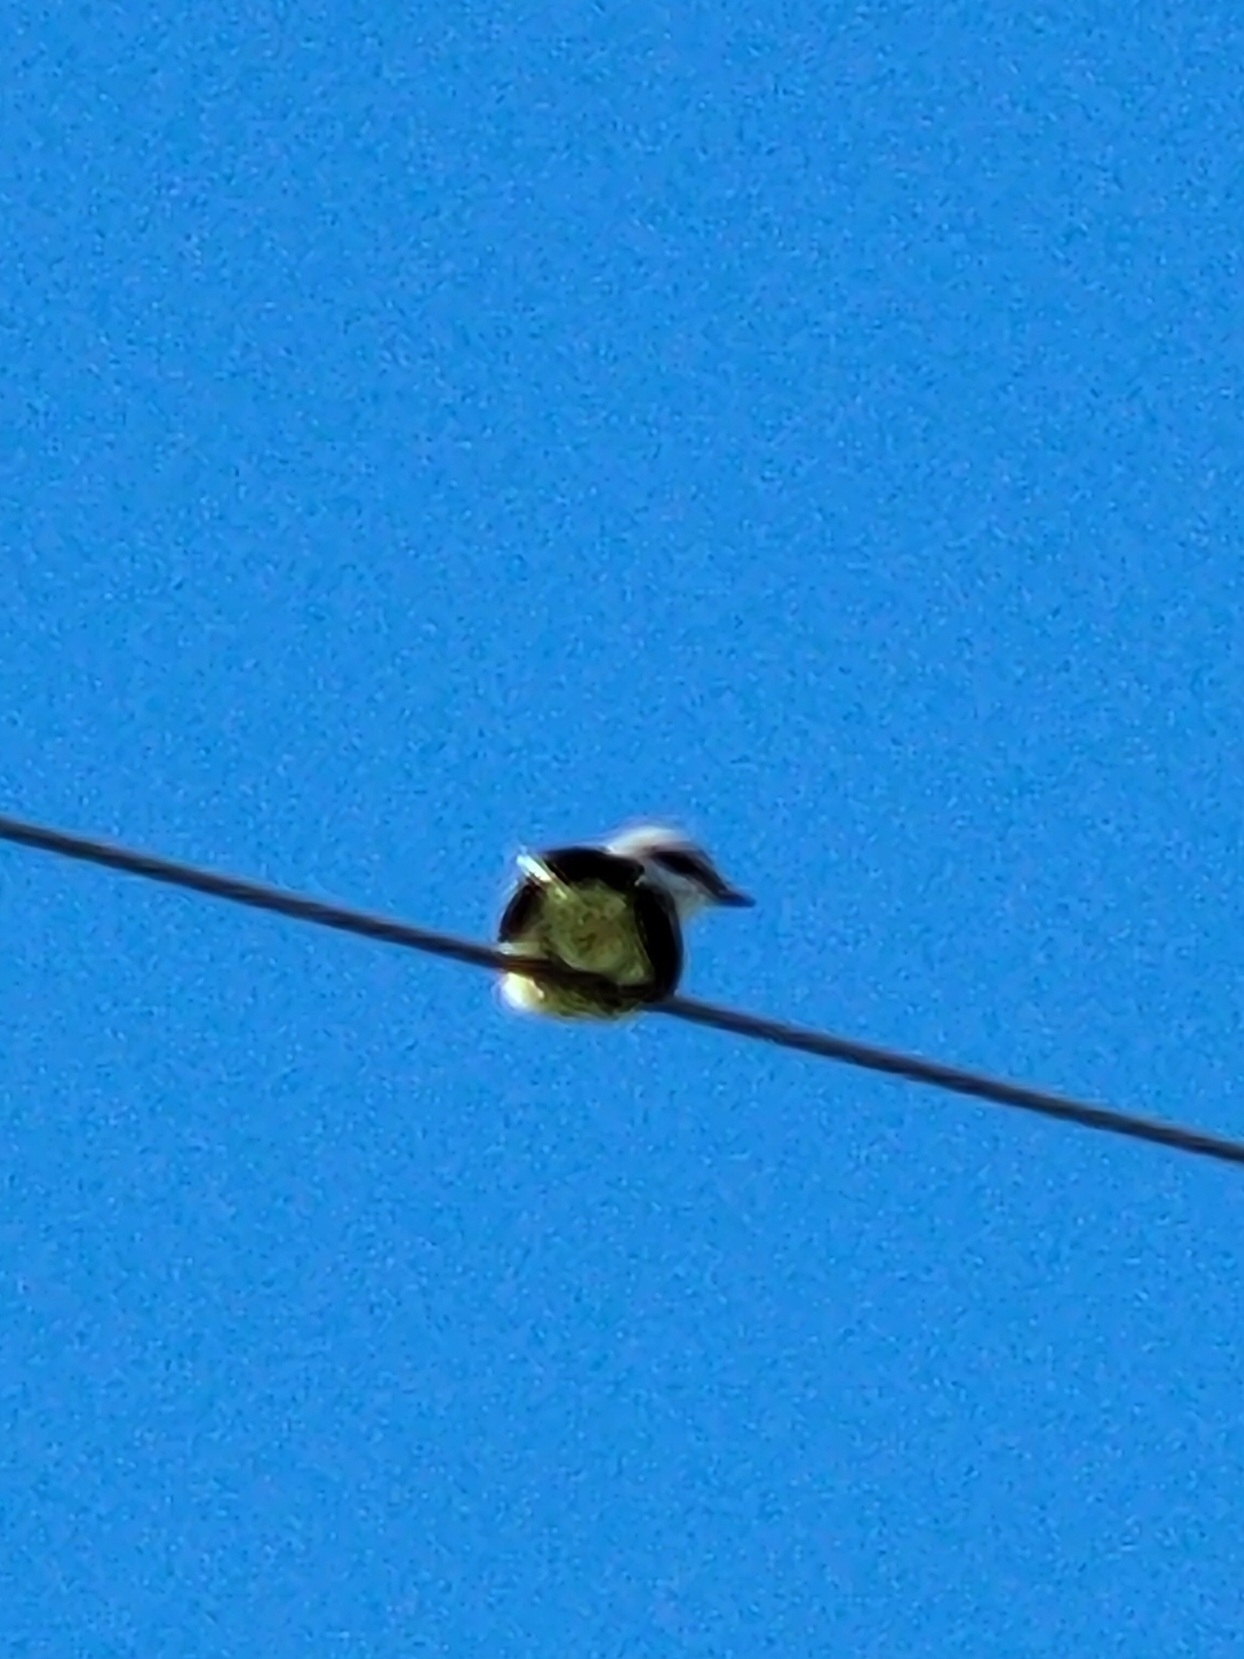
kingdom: Animalia
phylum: Chordata
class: Aves
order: Passeriformes
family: Tyrannidae
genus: Tyrannus
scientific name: Tyrannus verticalis
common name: Western kingbird
